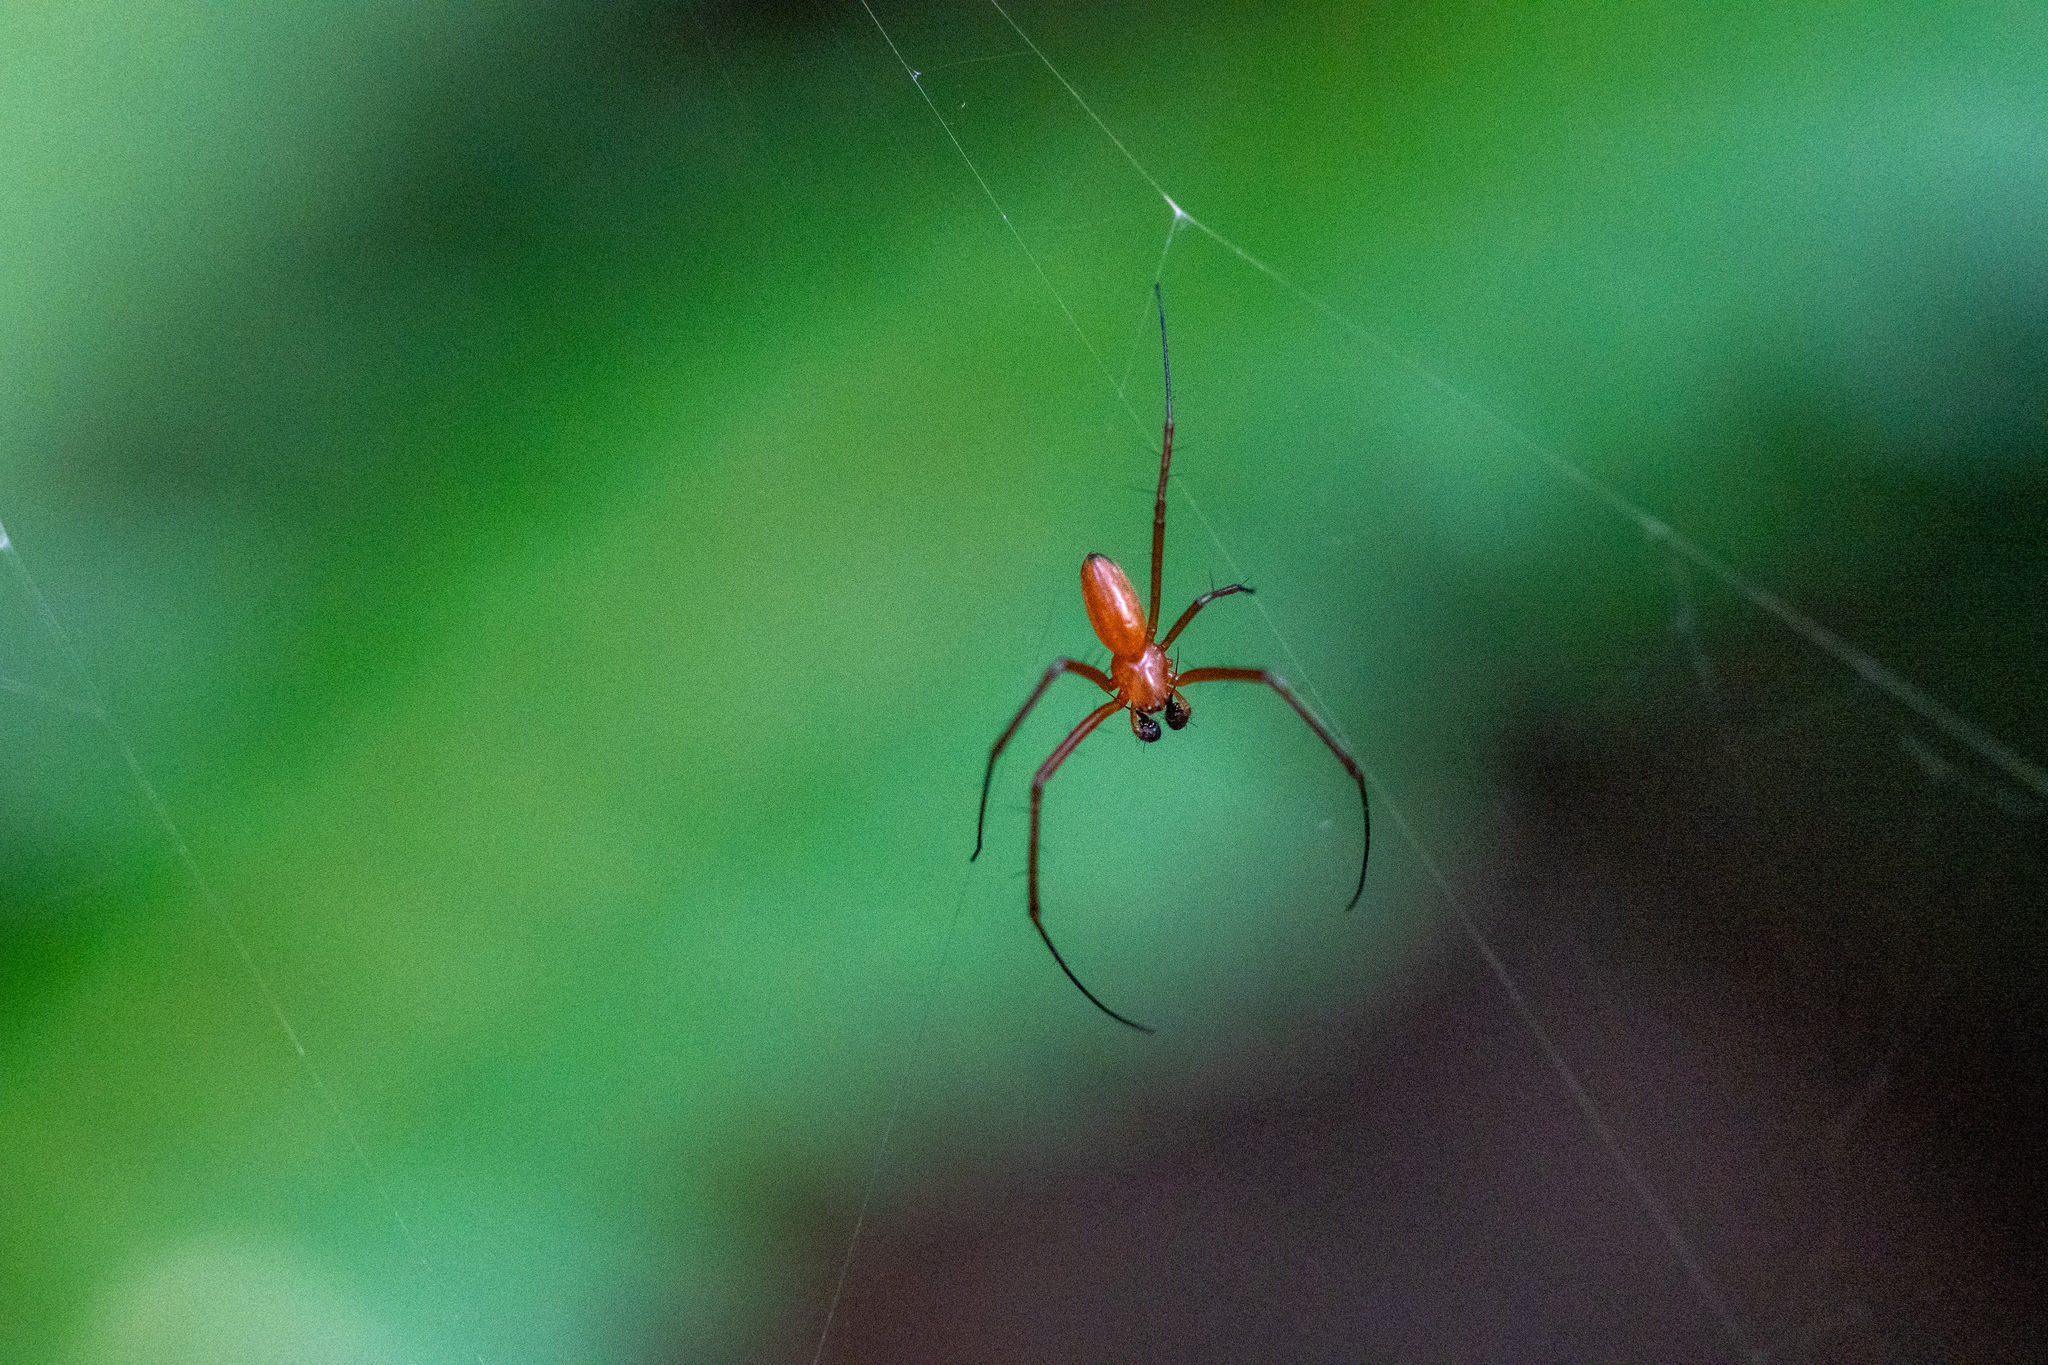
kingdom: Animalia
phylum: Arthropoda
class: Arachnida
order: Araneae
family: Araneidae
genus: Nephila
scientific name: Nephila pilipes
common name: Giant golden orb weaver
